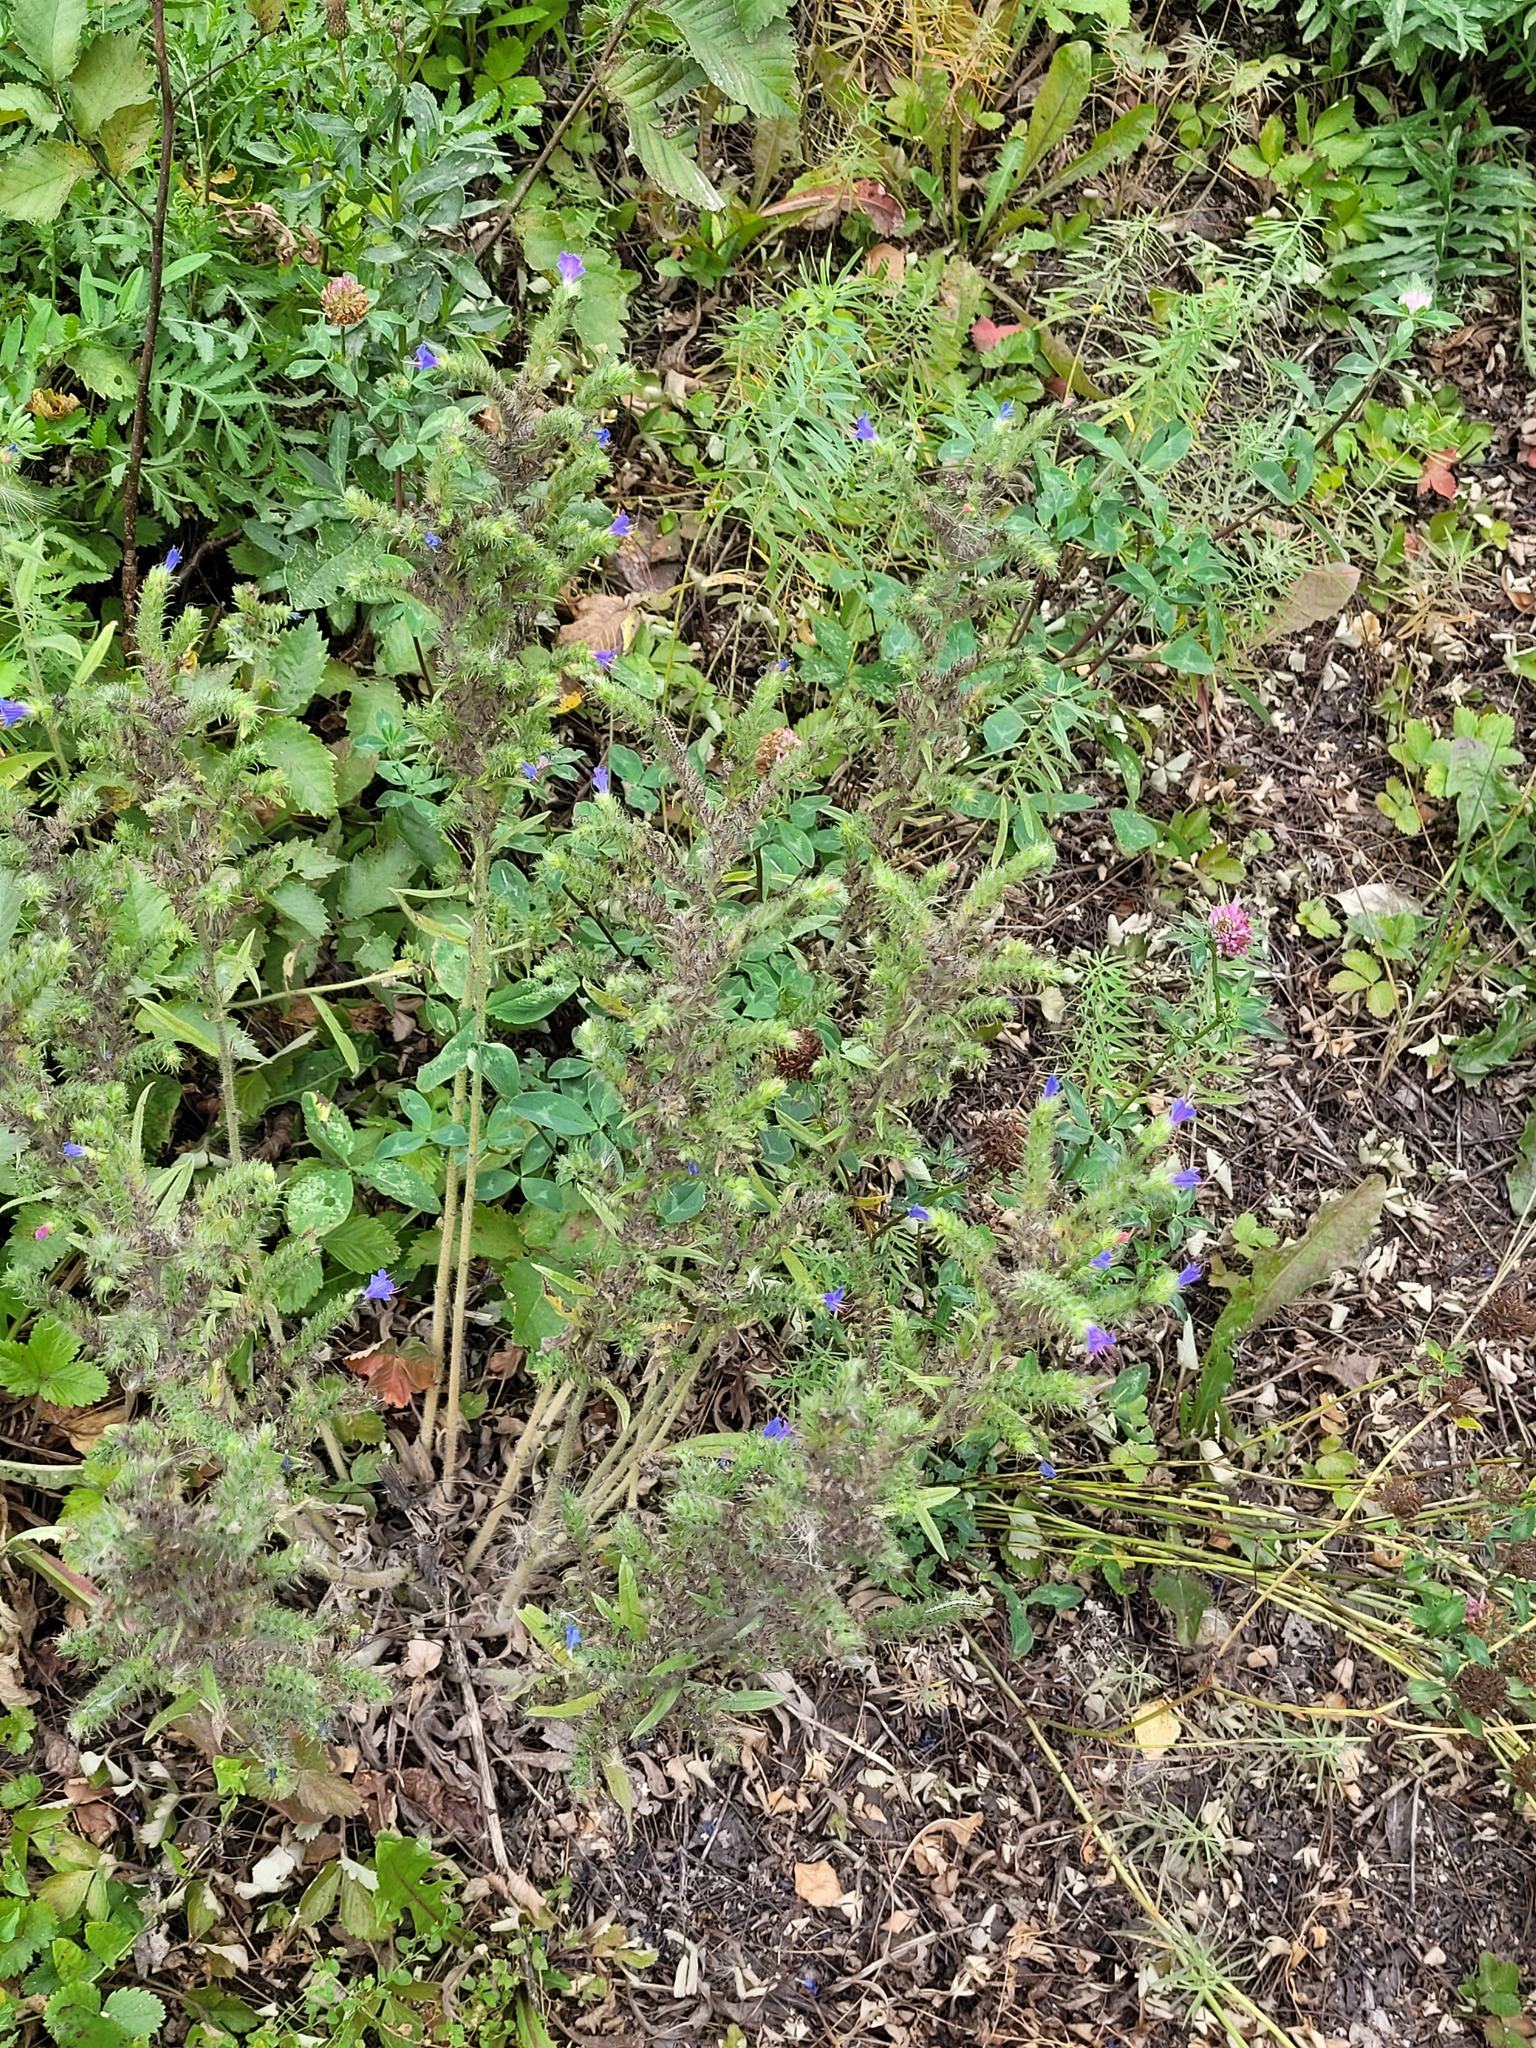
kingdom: Plantae
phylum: Tracheophyta
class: Magnoliopsida
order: Boraginales
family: Boraginaceae
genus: Echium
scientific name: Echium vulgare
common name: Common viper's bugloss
